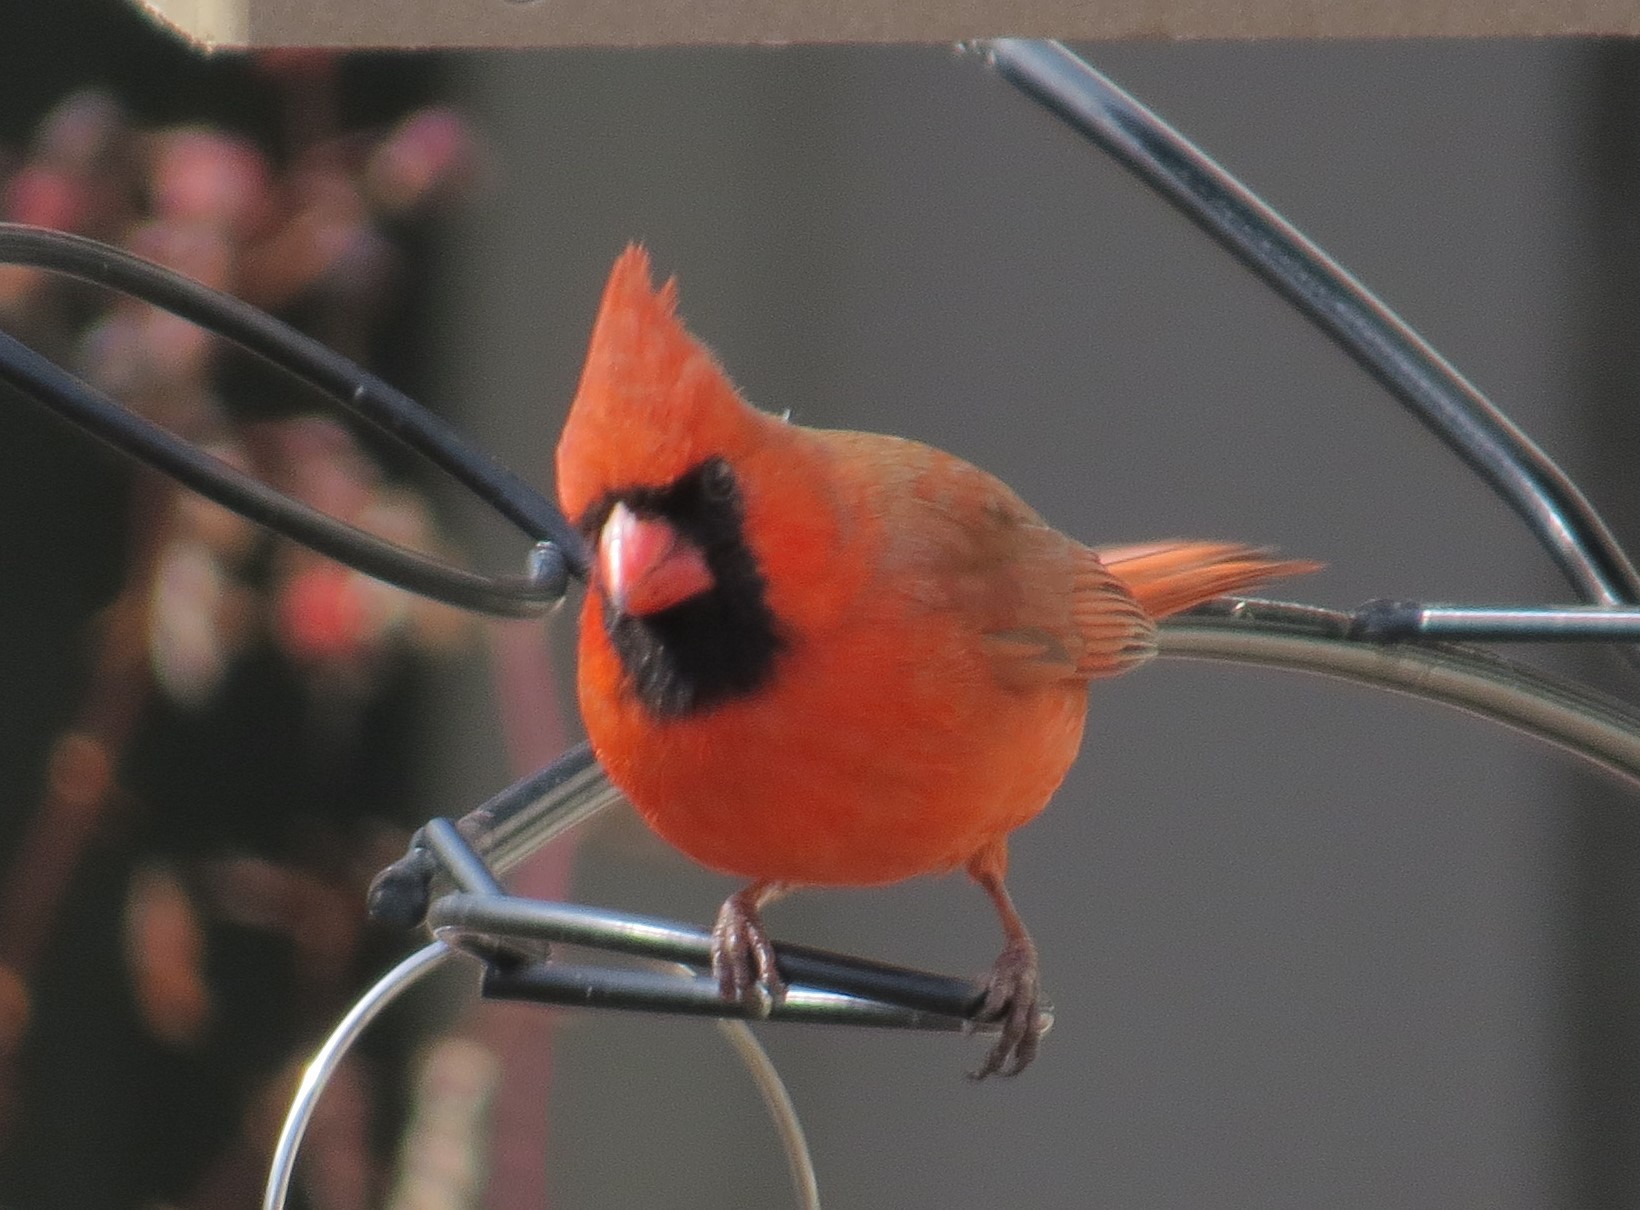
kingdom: Animalia
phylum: Chordata
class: Aves
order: Passeriformes
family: Cardinalidae
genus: Cardinalis
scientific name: Cardinalis cardinalis
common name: Northern cardinal
